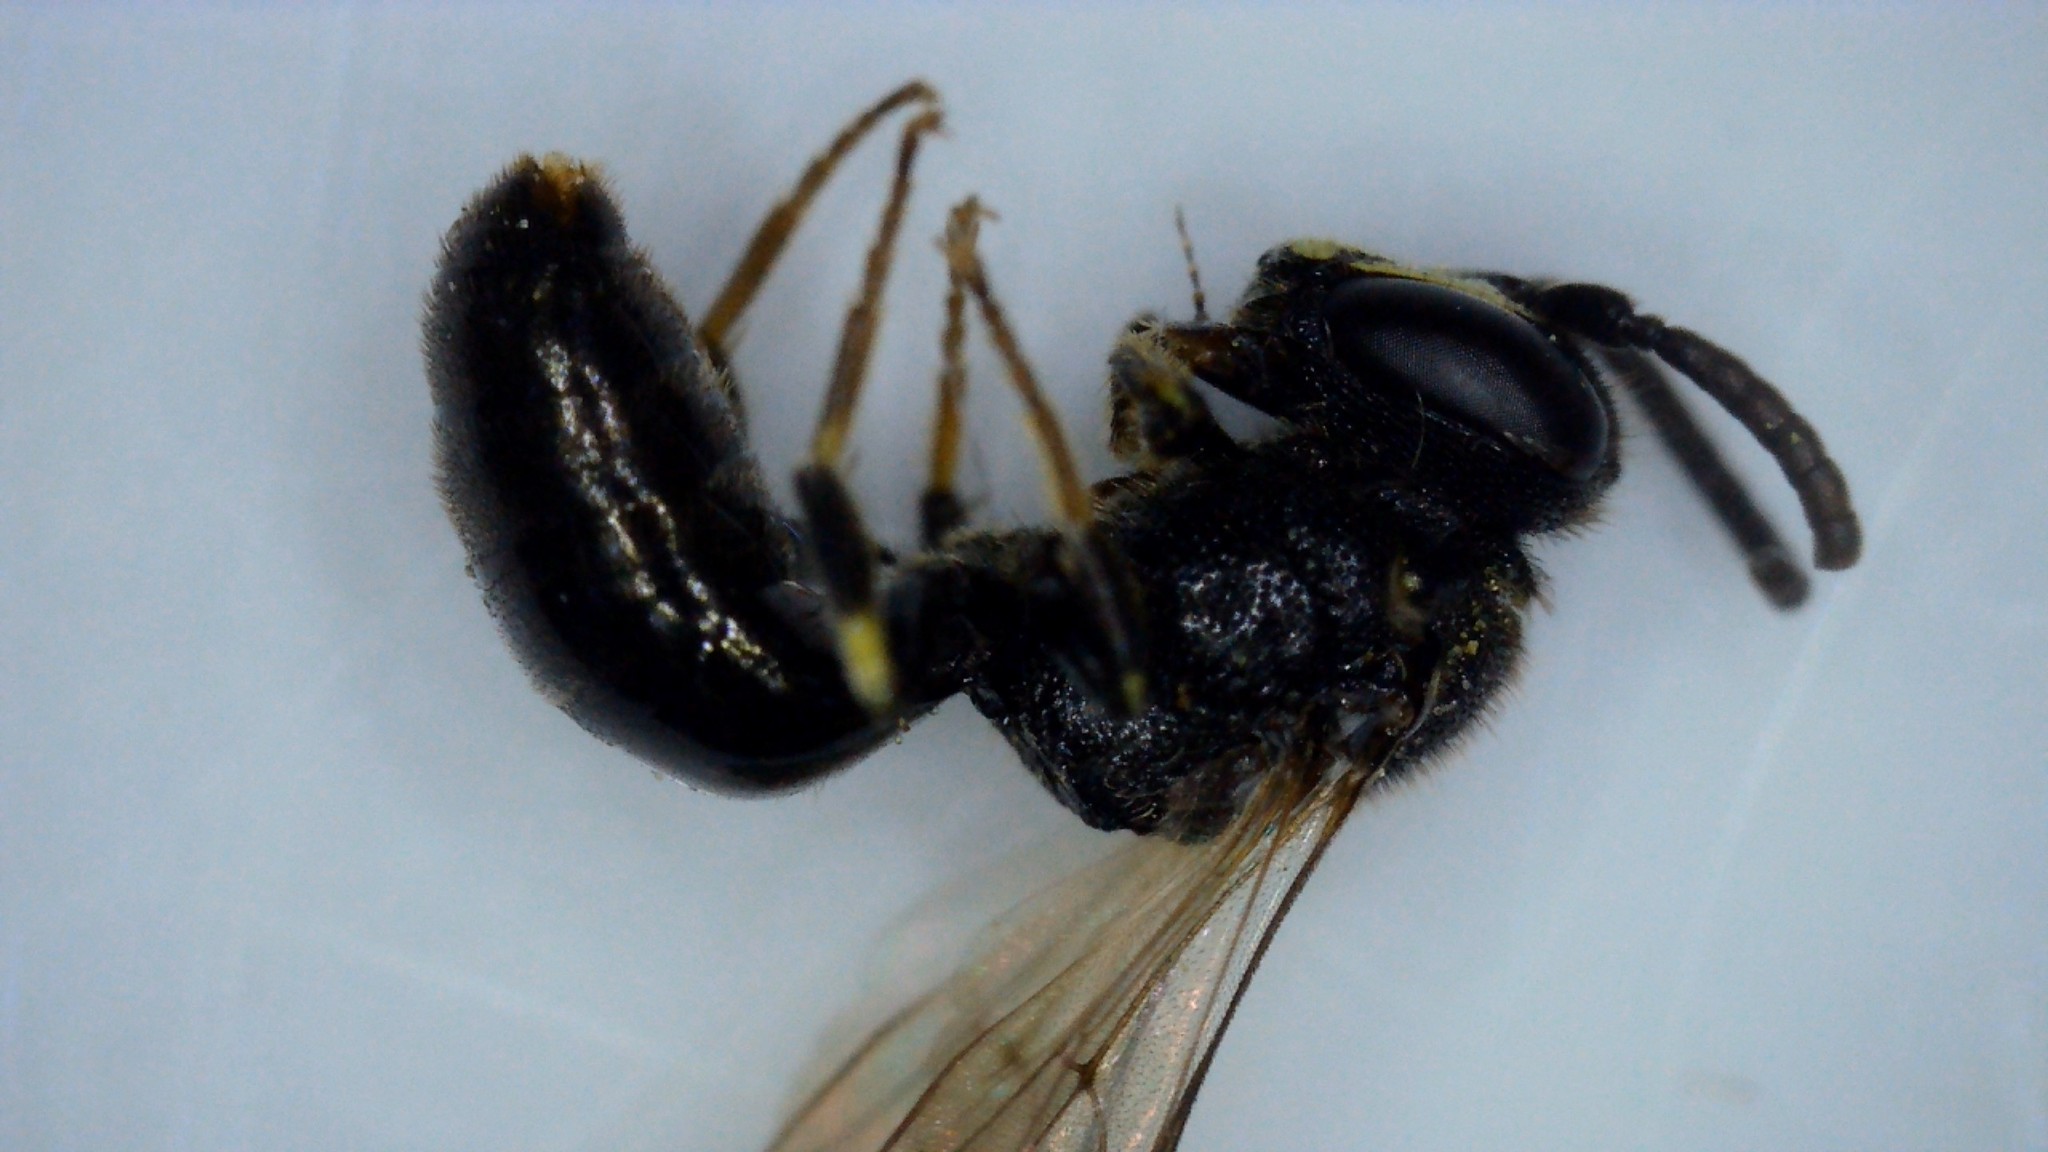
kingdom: Animalia
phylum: Arthropoda
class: Insecta
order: Hymenoptera
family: Colletidae
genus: Hylaeus
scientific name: Hylaeus communis
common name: Common yellow-face bee
